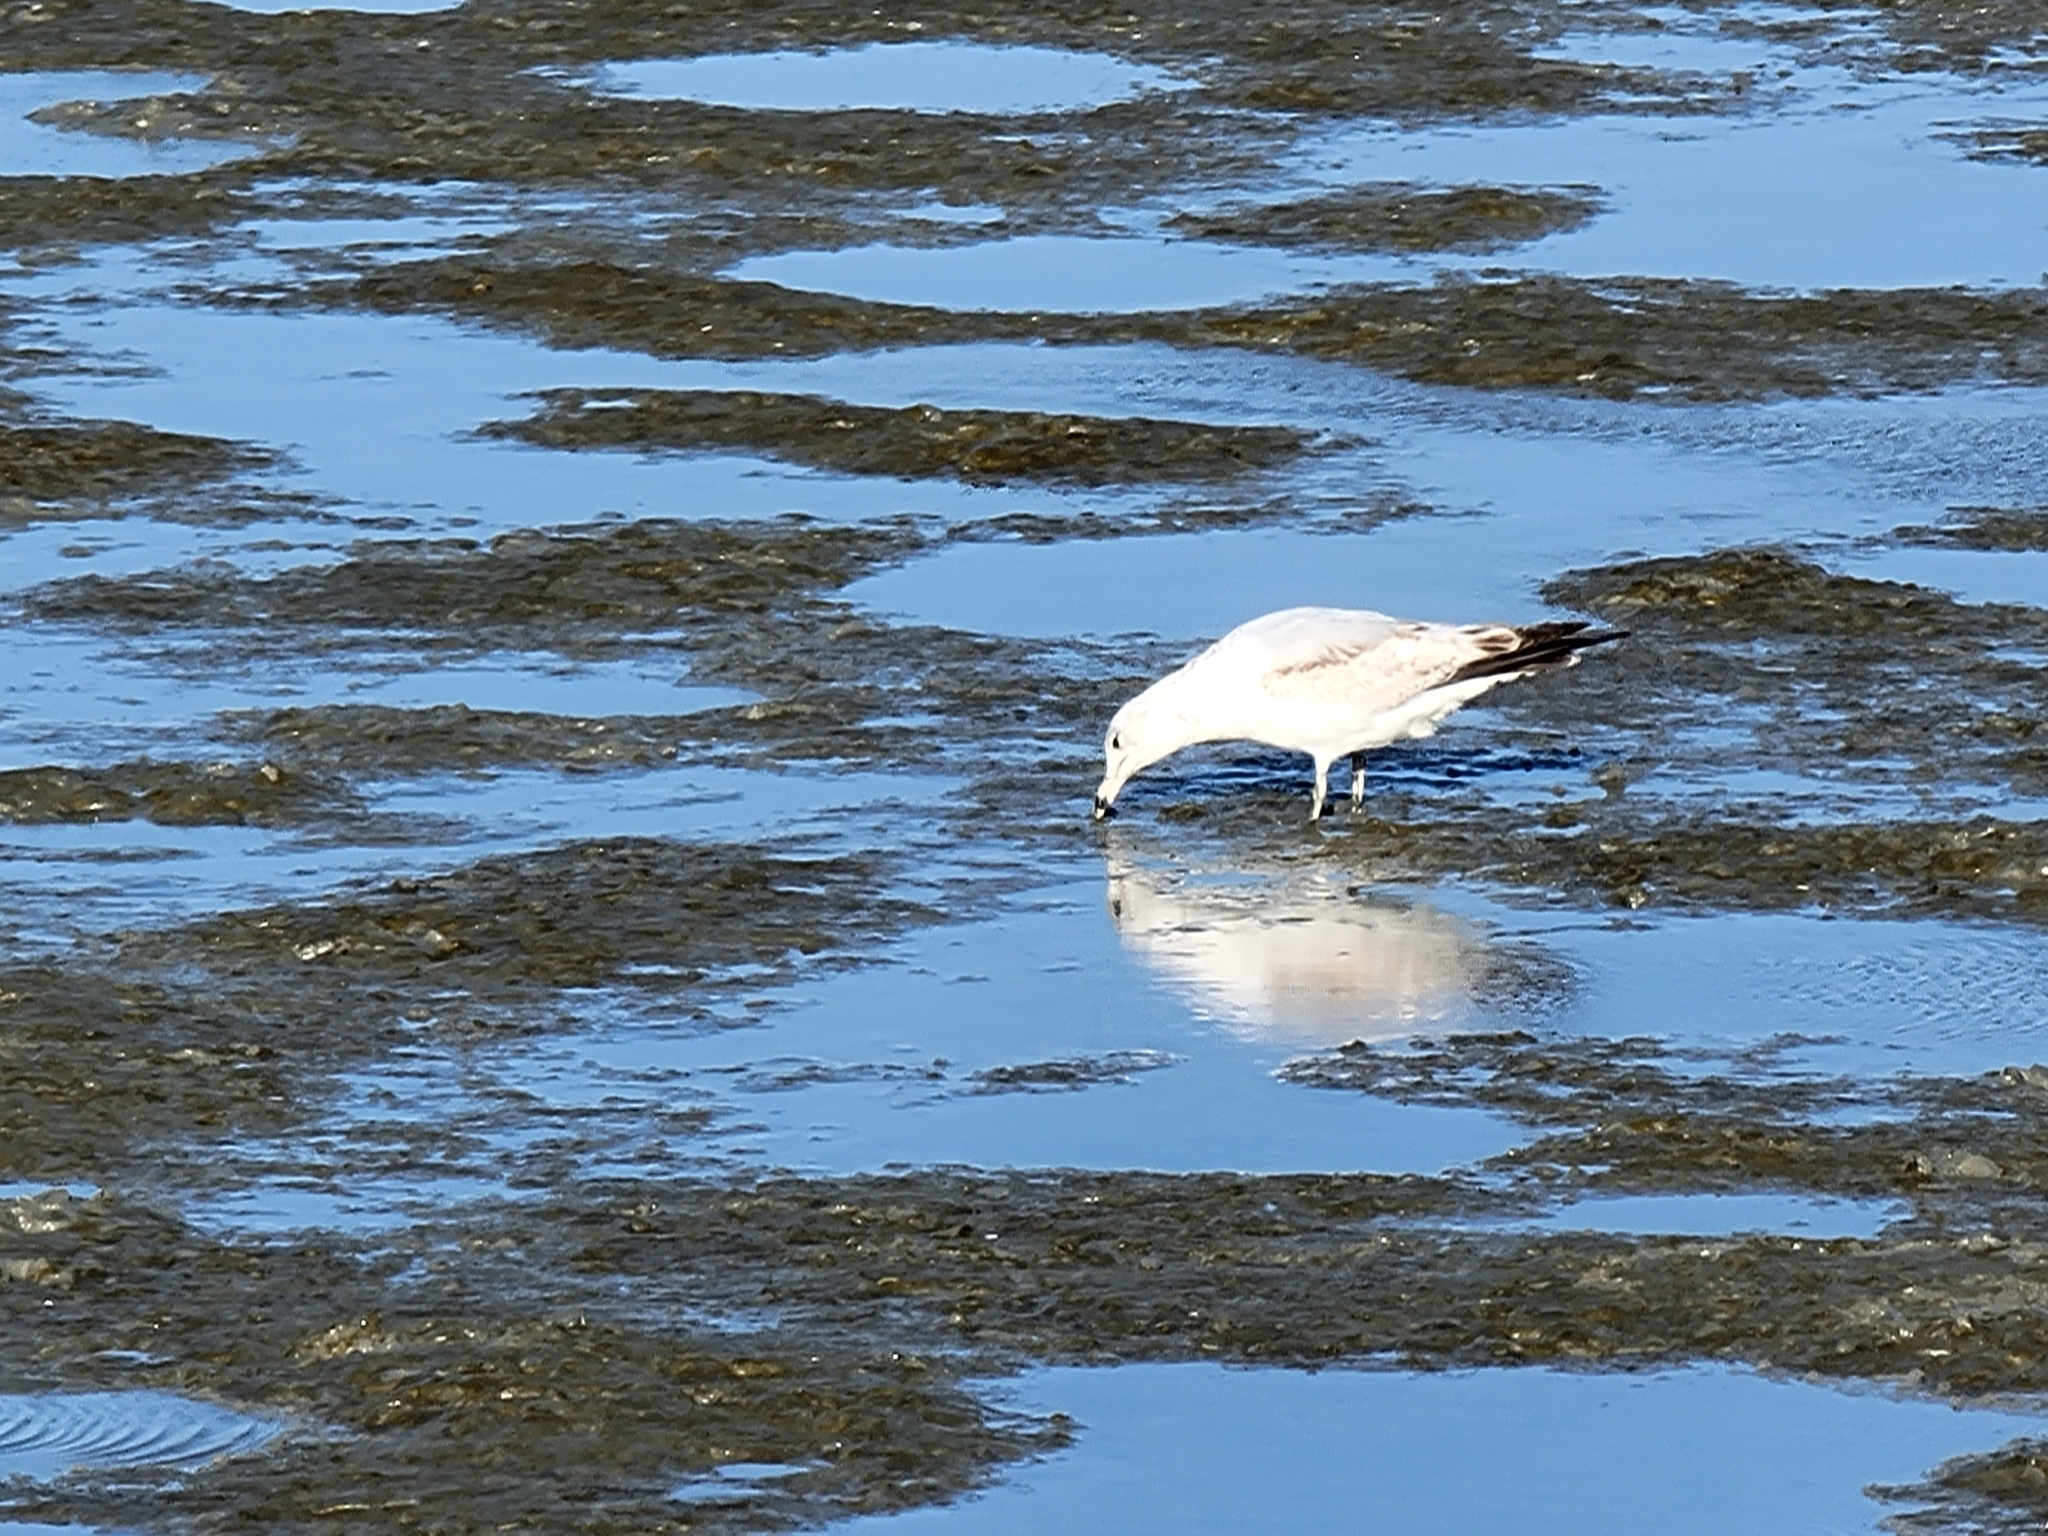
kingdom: Animalia
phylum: Chordata
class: Aves
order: Charadriiformes
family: Laridae
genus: Larus
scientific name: Larus delawarensis
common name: Ring-billed gull
